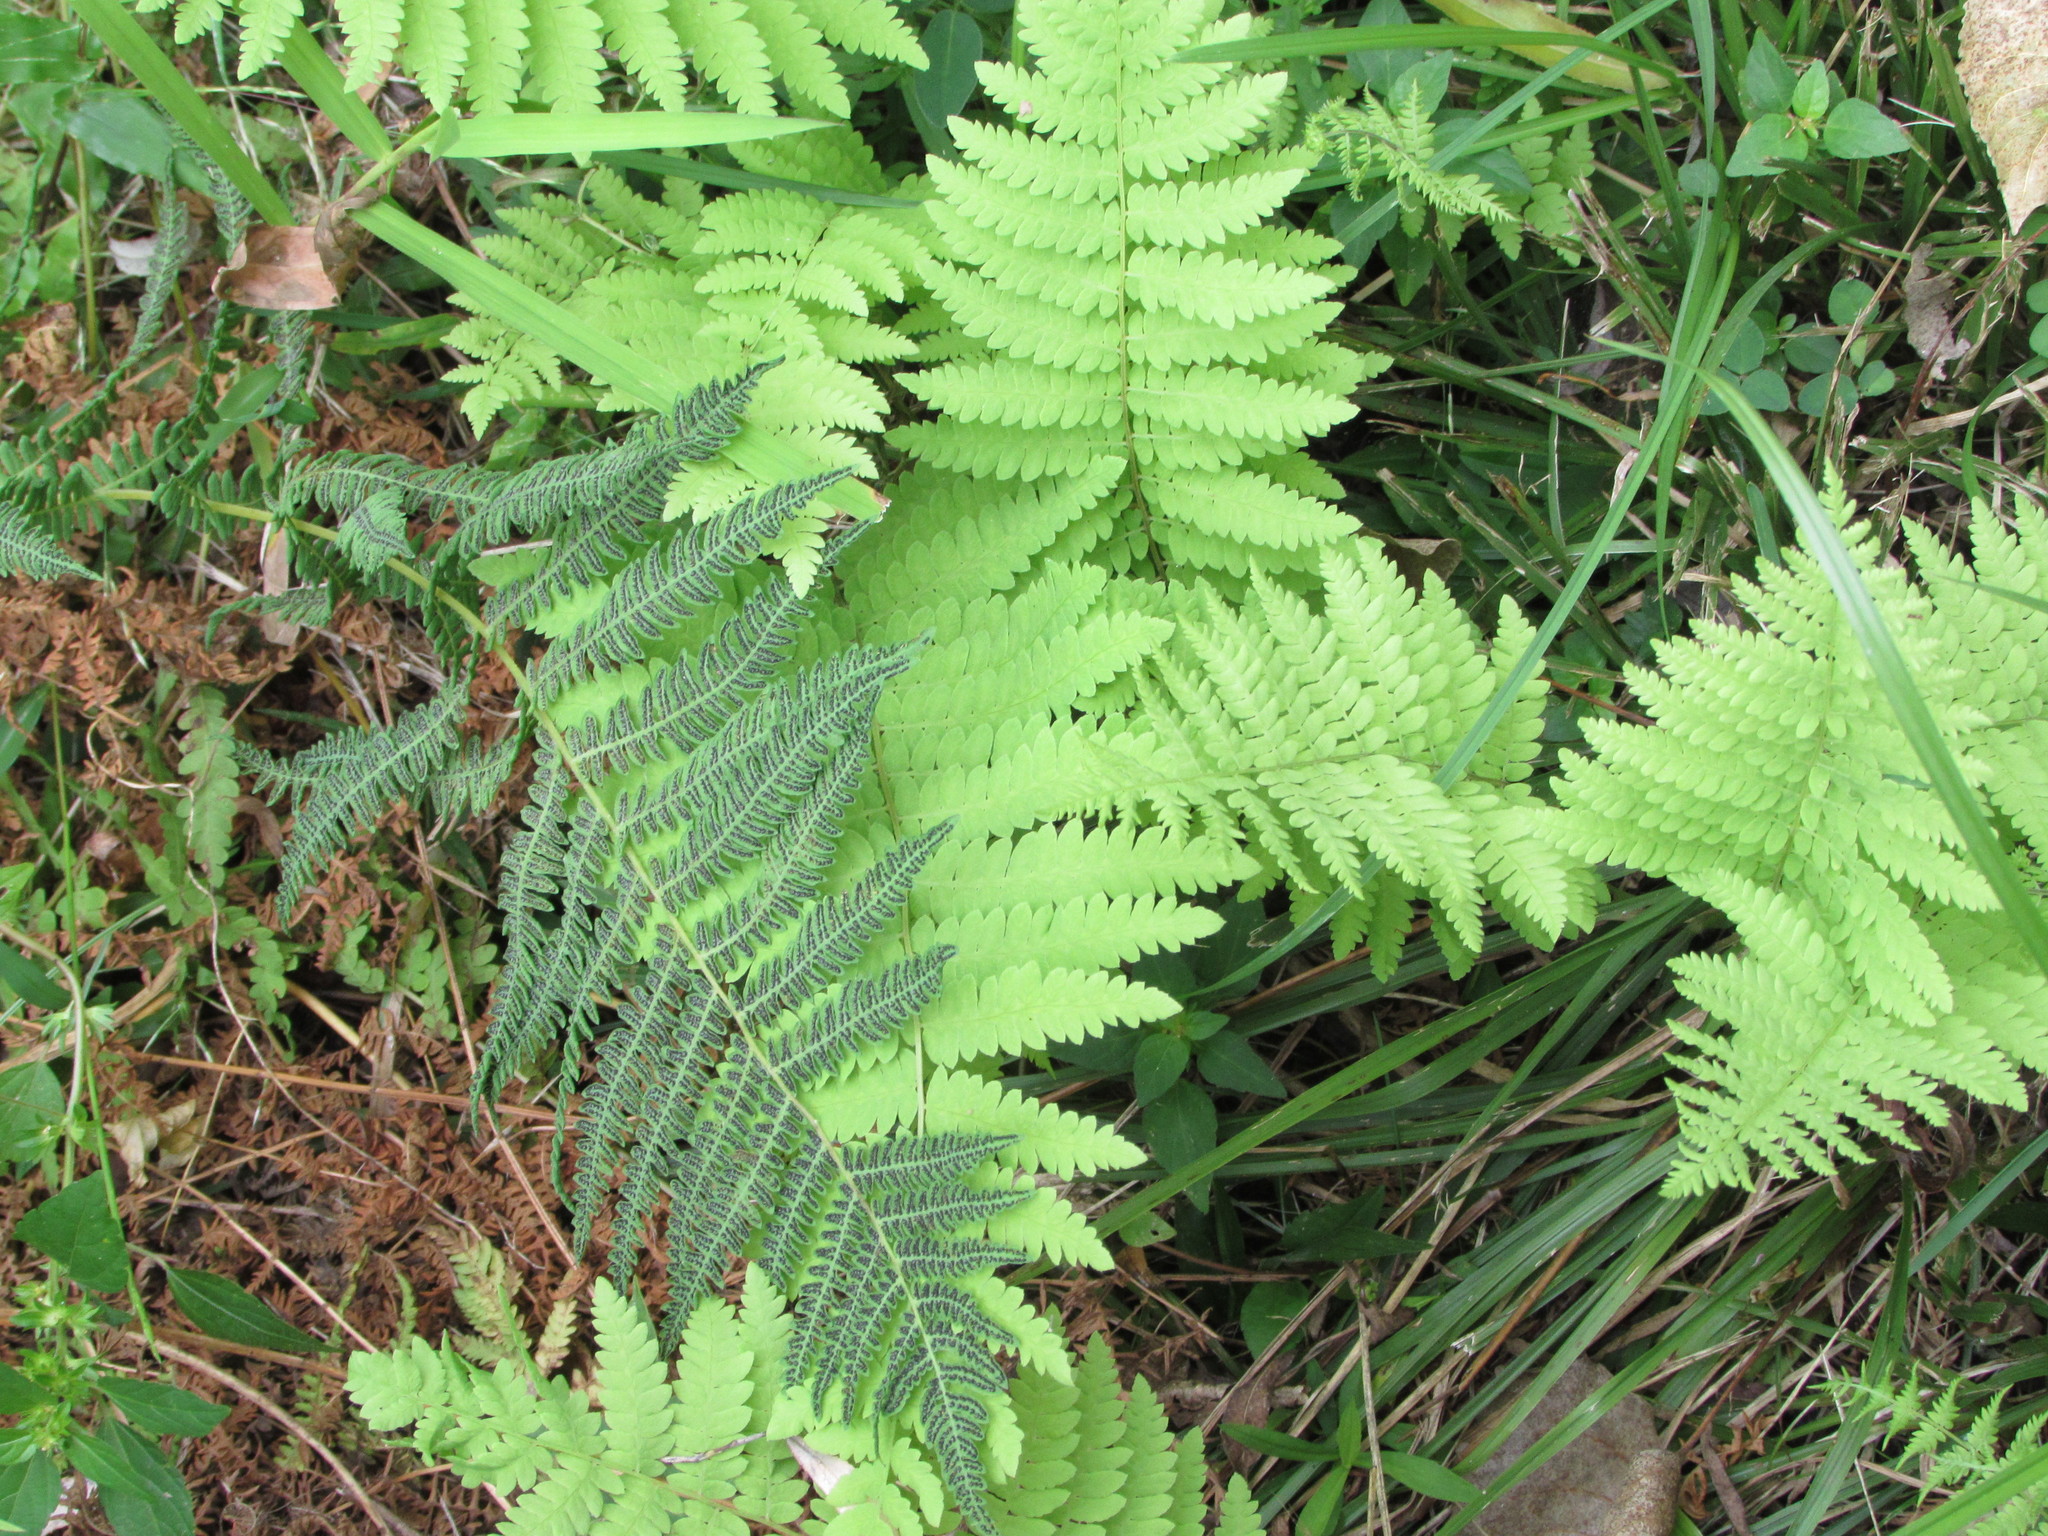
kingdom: Plantae
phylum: Tracheophyta
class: Polypodiopsida
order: Polypodiales
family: Thelypteridaceae
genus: Thelypteris
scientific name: Thelypteris palustris
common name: Marsh fern
